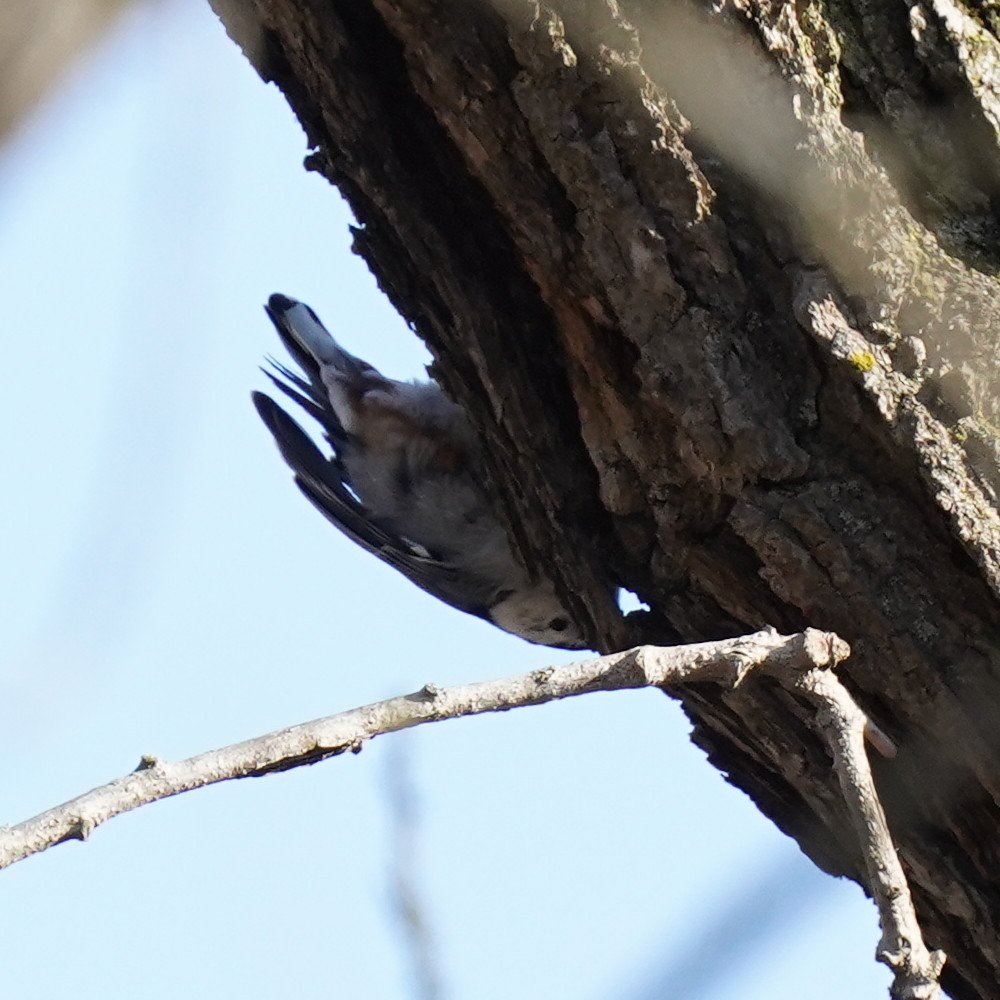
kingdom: Animalia
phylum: Chordata
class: Aves
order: Passeriformes
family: Sittidae
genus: Sitta
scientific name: Sitta carolinensis
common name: White-breasted nuthatch
